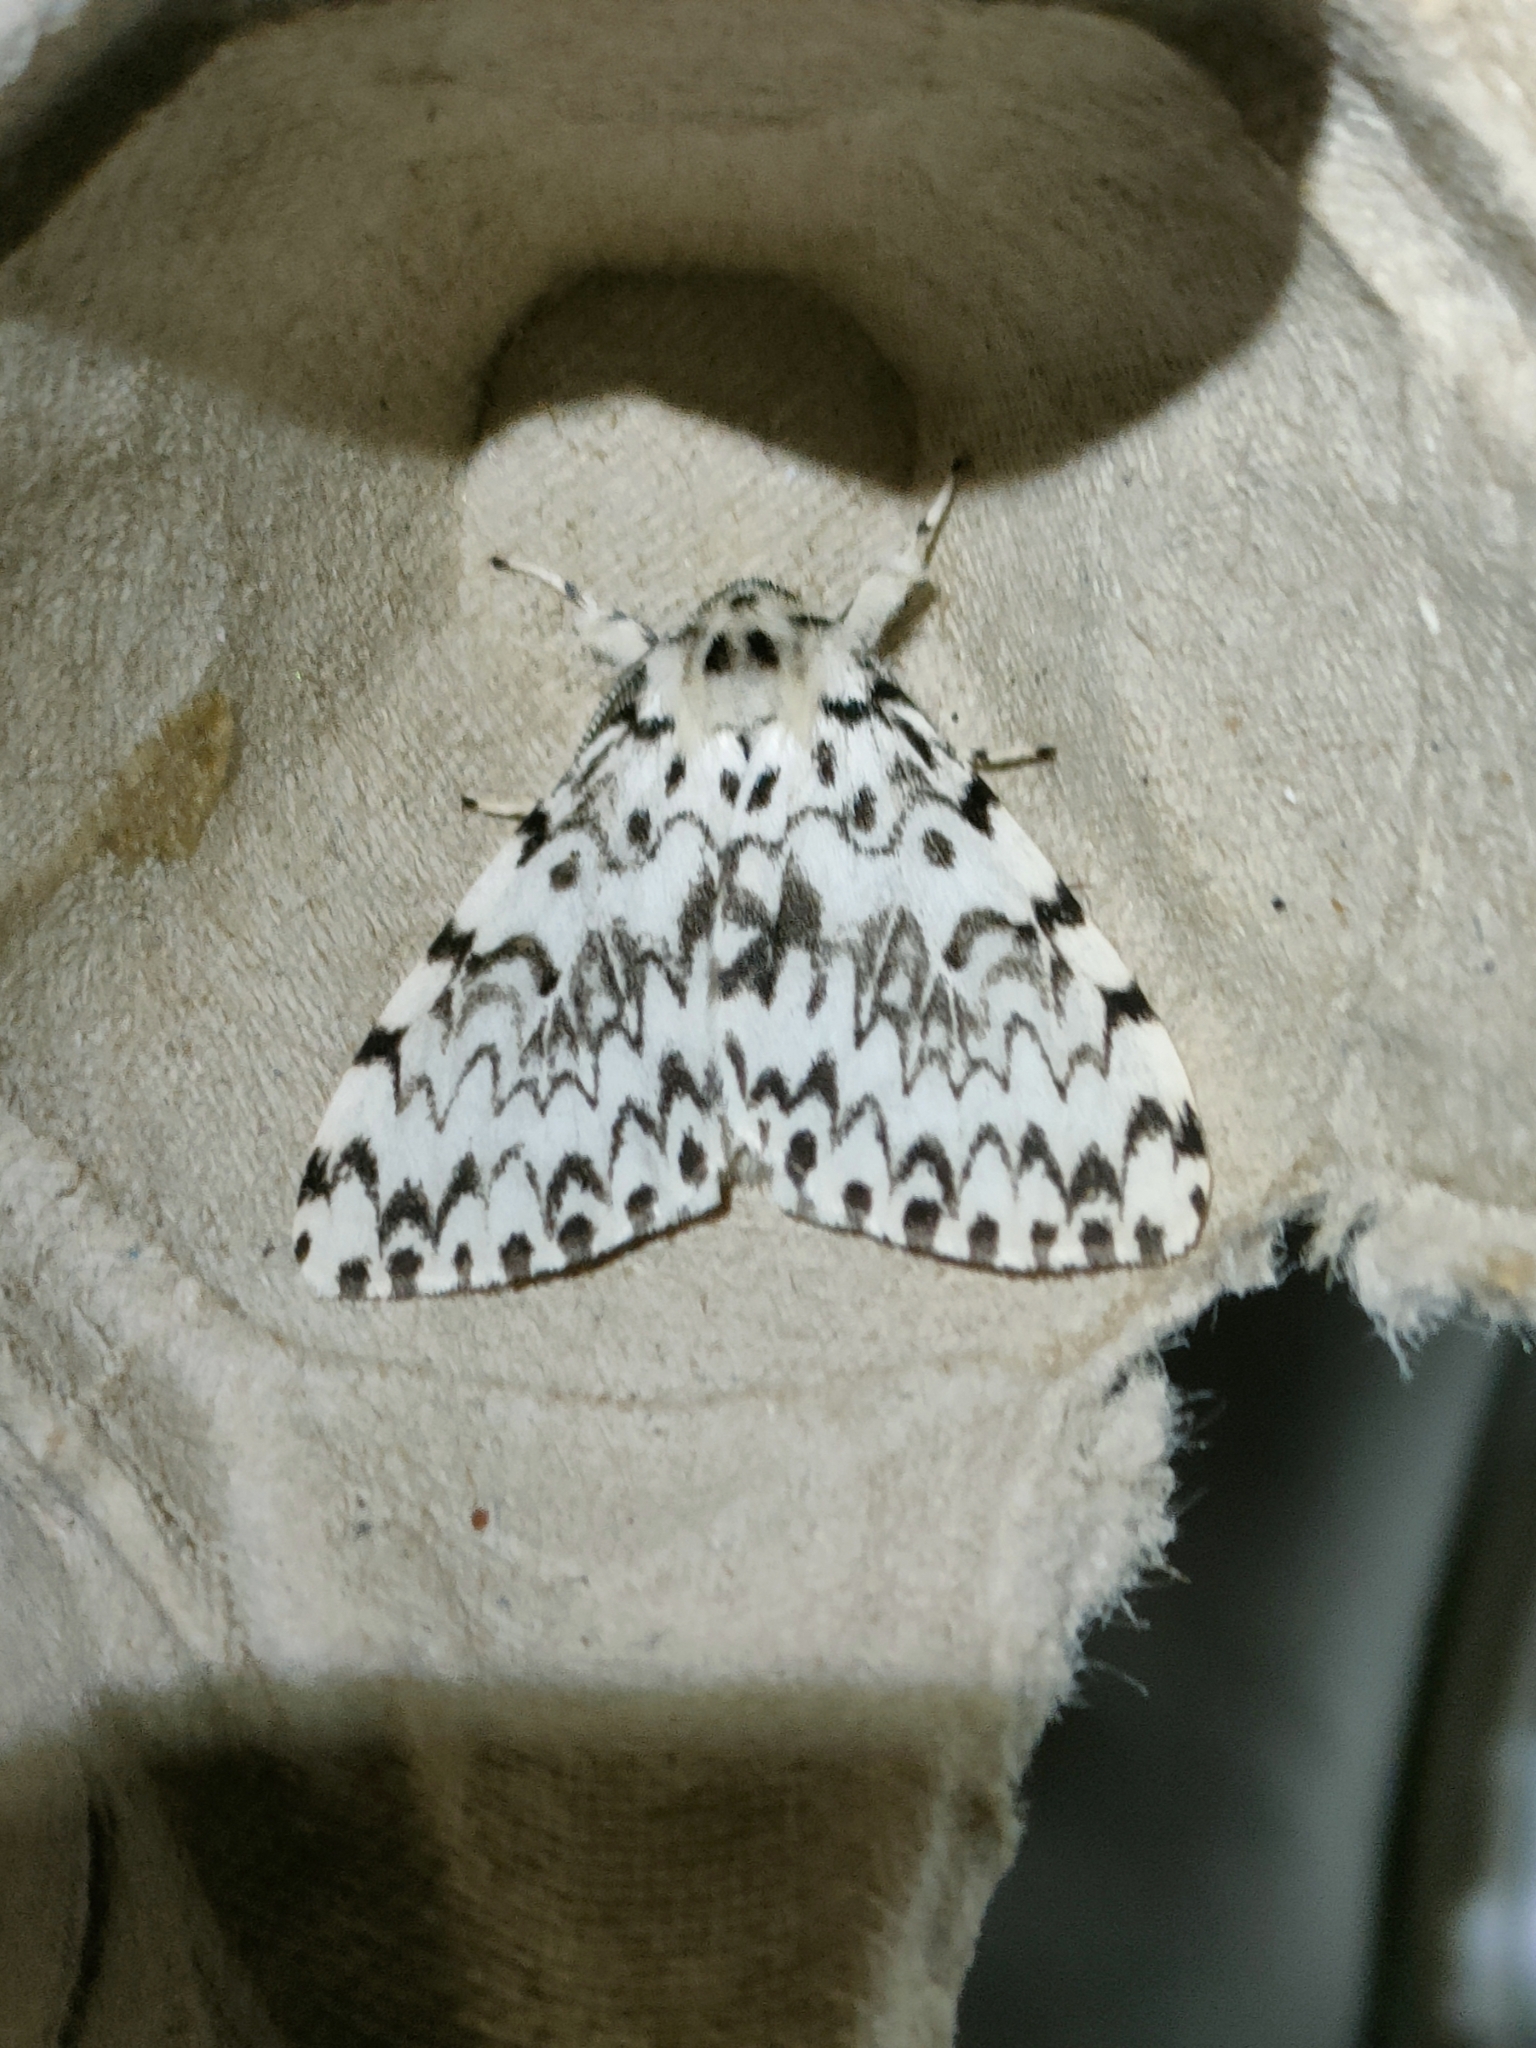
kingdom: Animalia
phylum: Arthropoda
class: Insecta
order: Lepidoptera
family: Erebidae
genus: Lymantria
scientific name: Lymantria monacha
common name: Black arches
